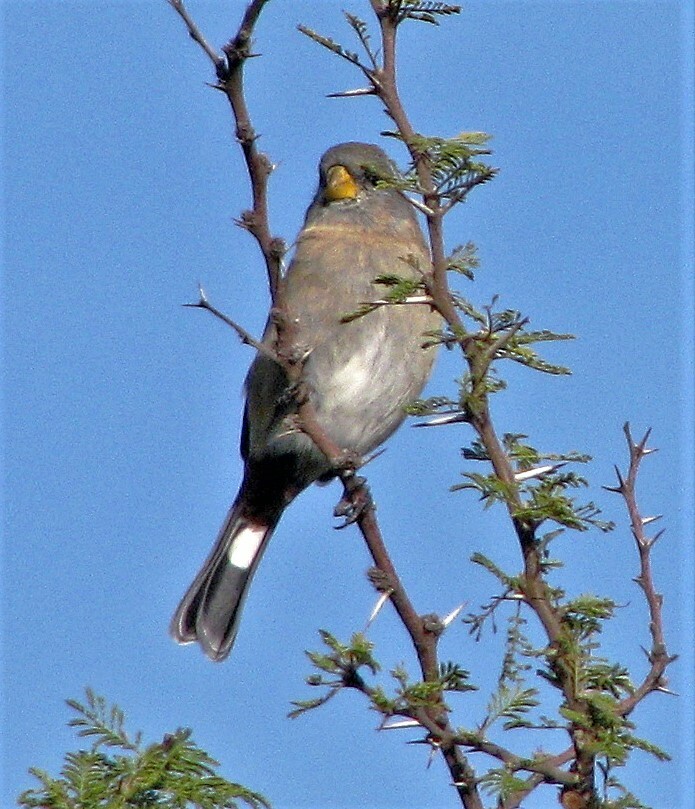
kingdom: Animalia
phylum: Chordata
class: Aves
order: Passeriformes
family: Thraupidae
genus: Catamenia
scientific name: Catamenia analis
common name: Band-tailed seedeater
